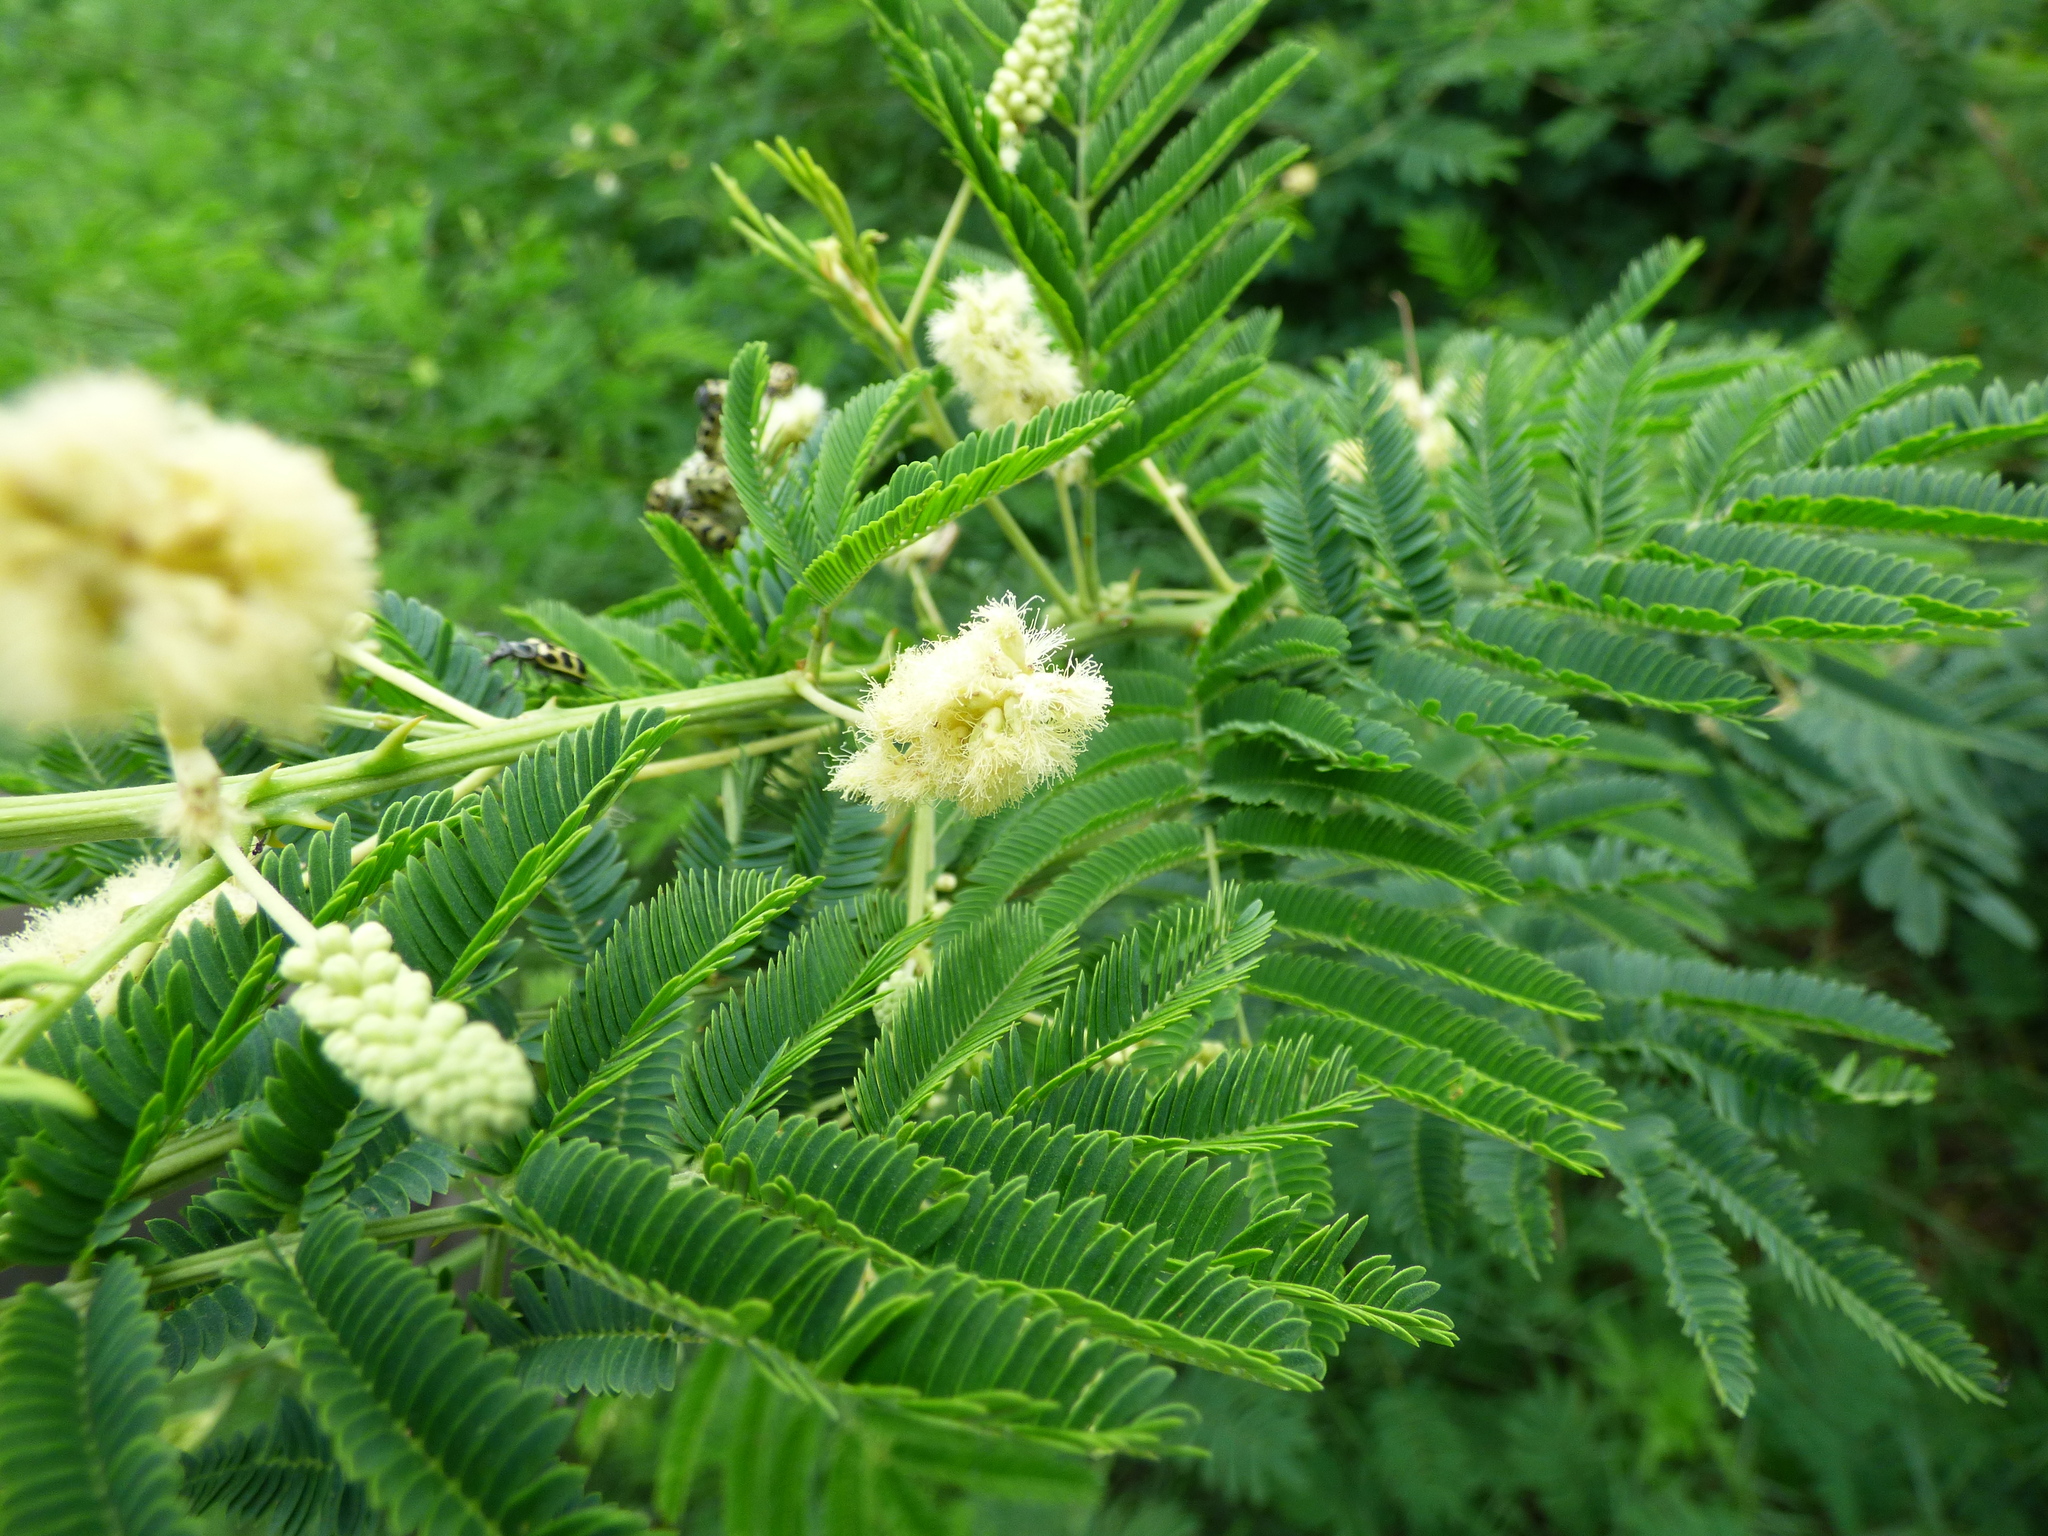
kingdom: Plantae
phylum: Tracheophyta
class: Magnoliopsida
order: Fabales
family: Fabaceae
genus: Senegalia
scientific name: Senegalia bonariensis
